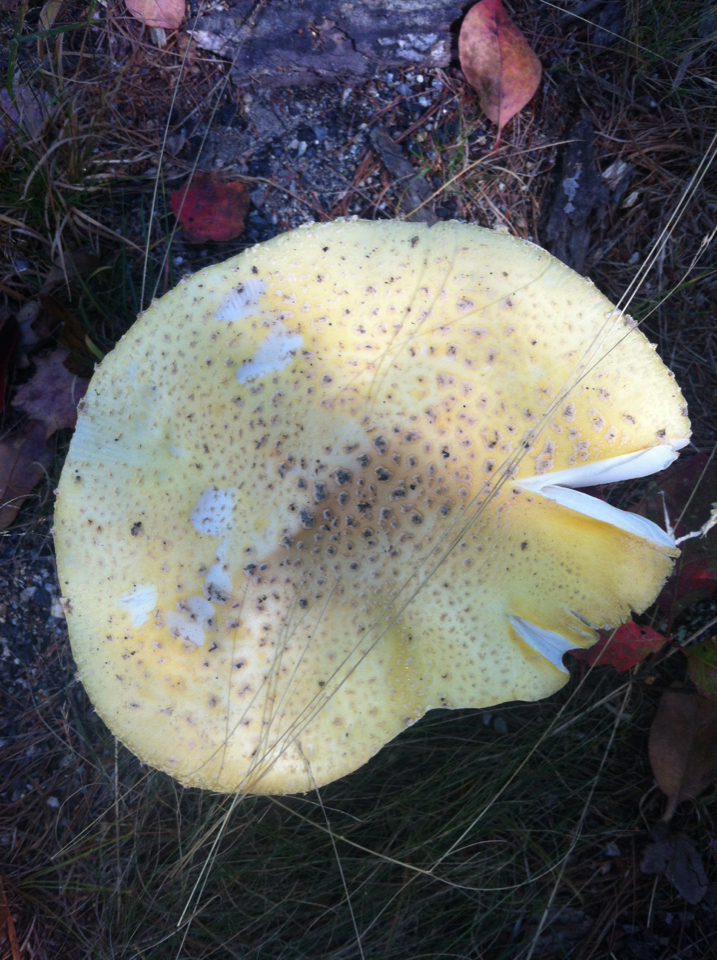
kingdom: Fungi
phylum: Basidiomycota
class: Agaricomycetes
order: Agaricales
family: Amanitaceae
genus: Amanita
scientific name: Amanita muscaria
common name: Fly agaric
